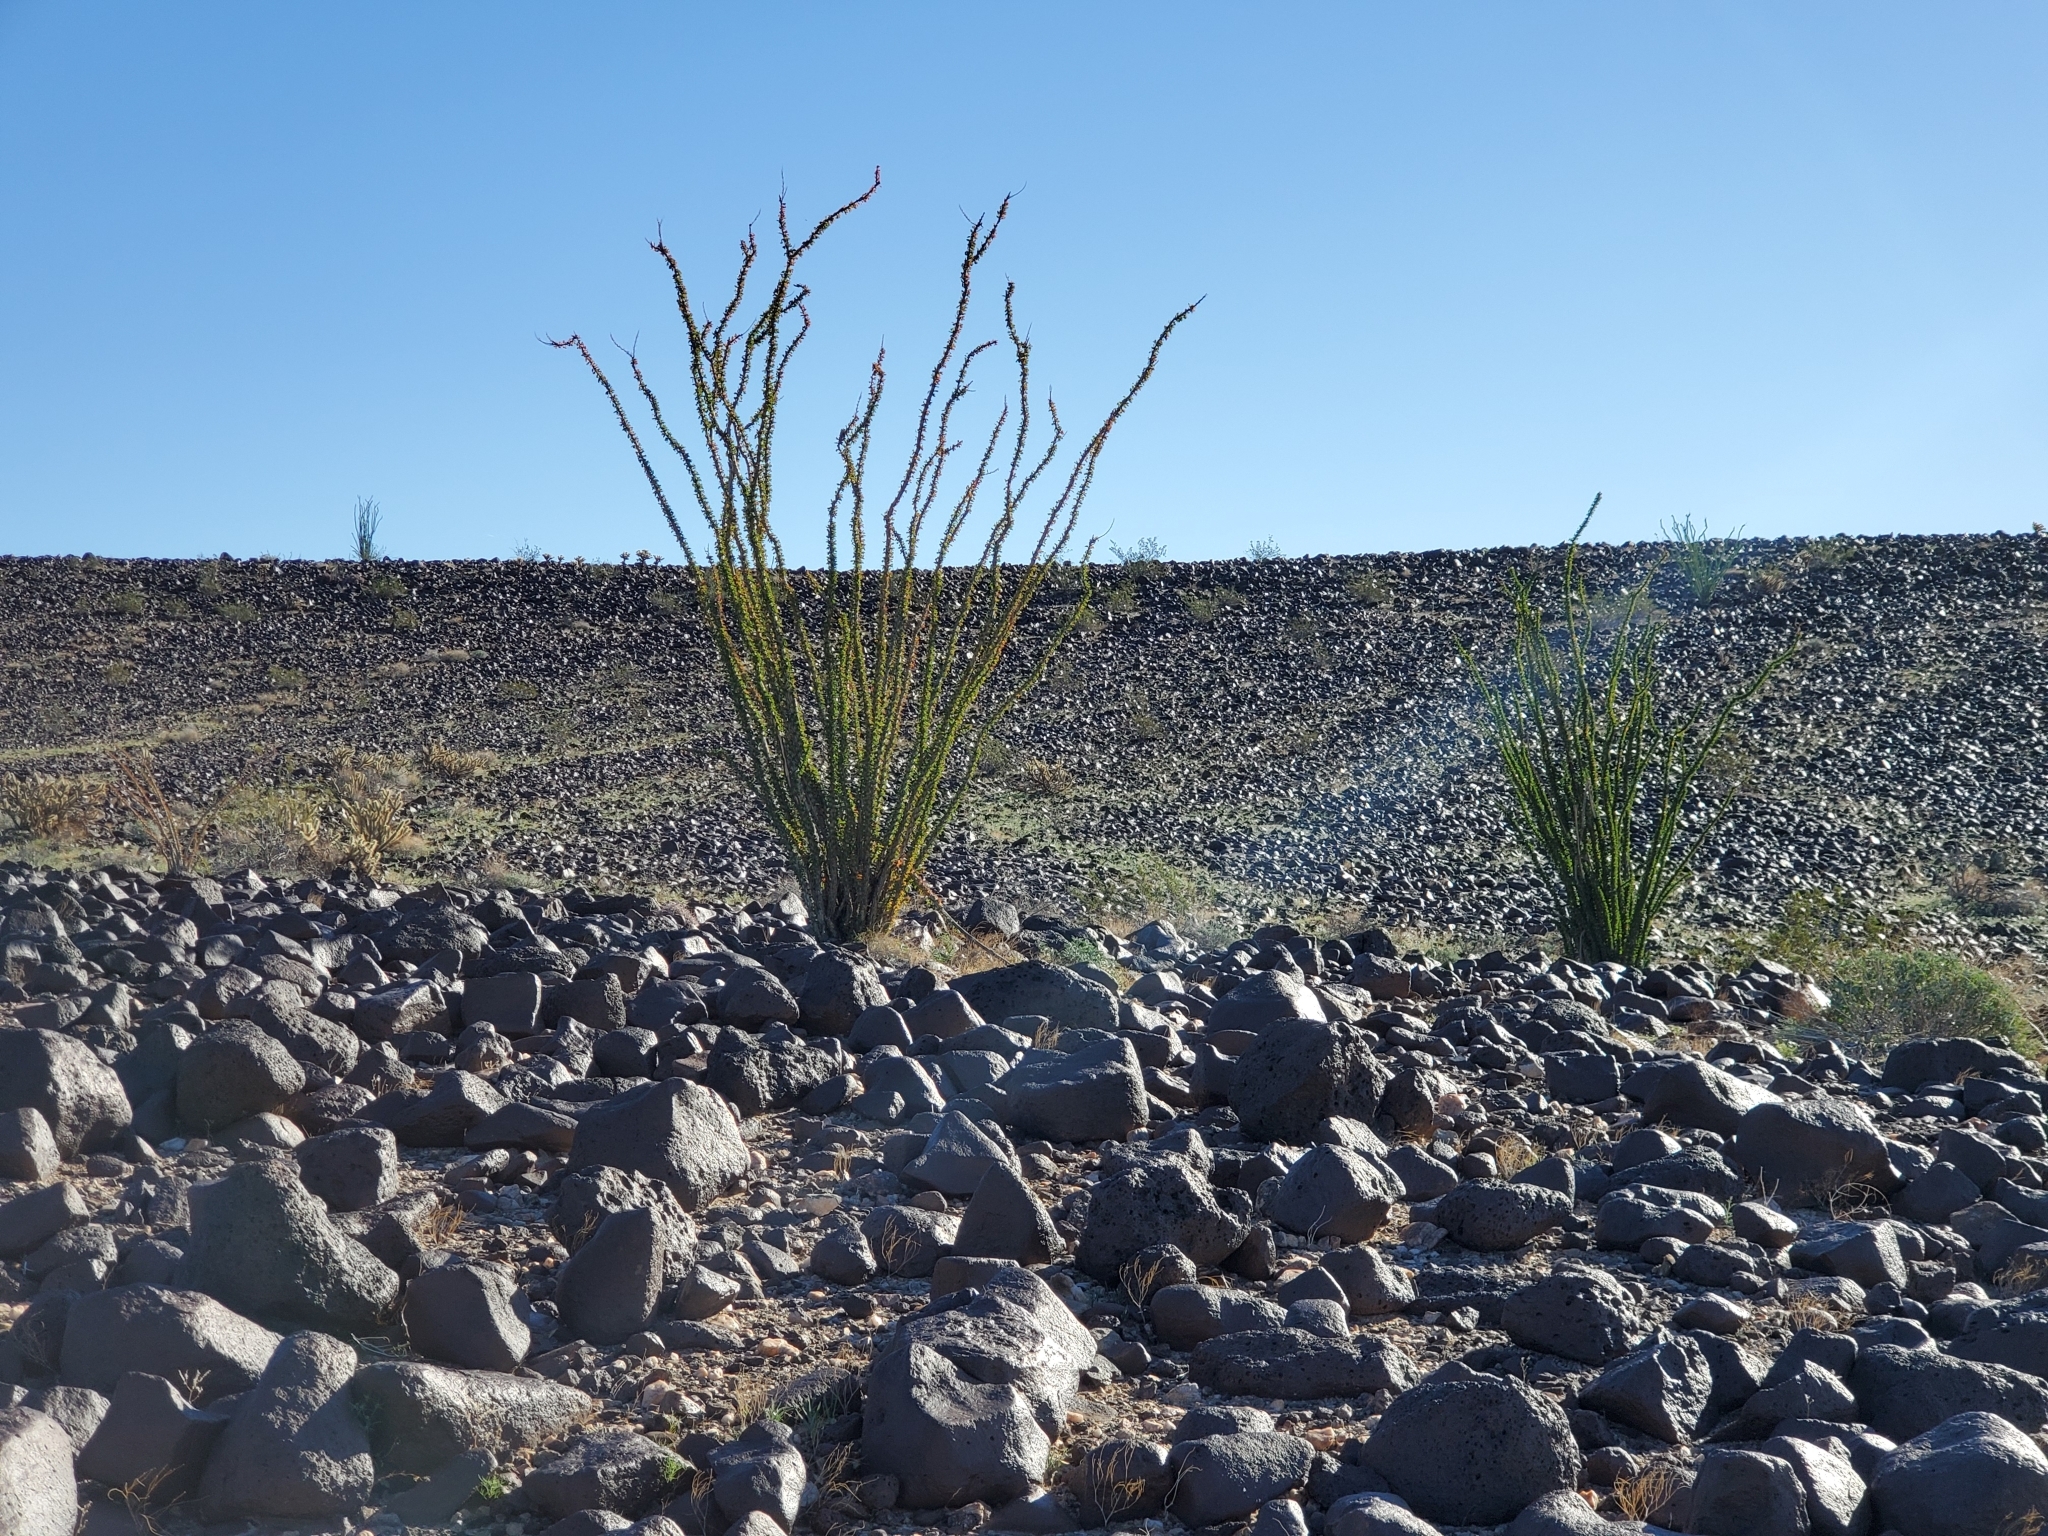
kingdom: Plantae
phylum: Tracheophyta
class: Magnoliopsida
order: Ericales
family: Fouquieriaceae
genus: Fouquieria
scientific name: Fouquieria splendens
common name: Vine-cactus
